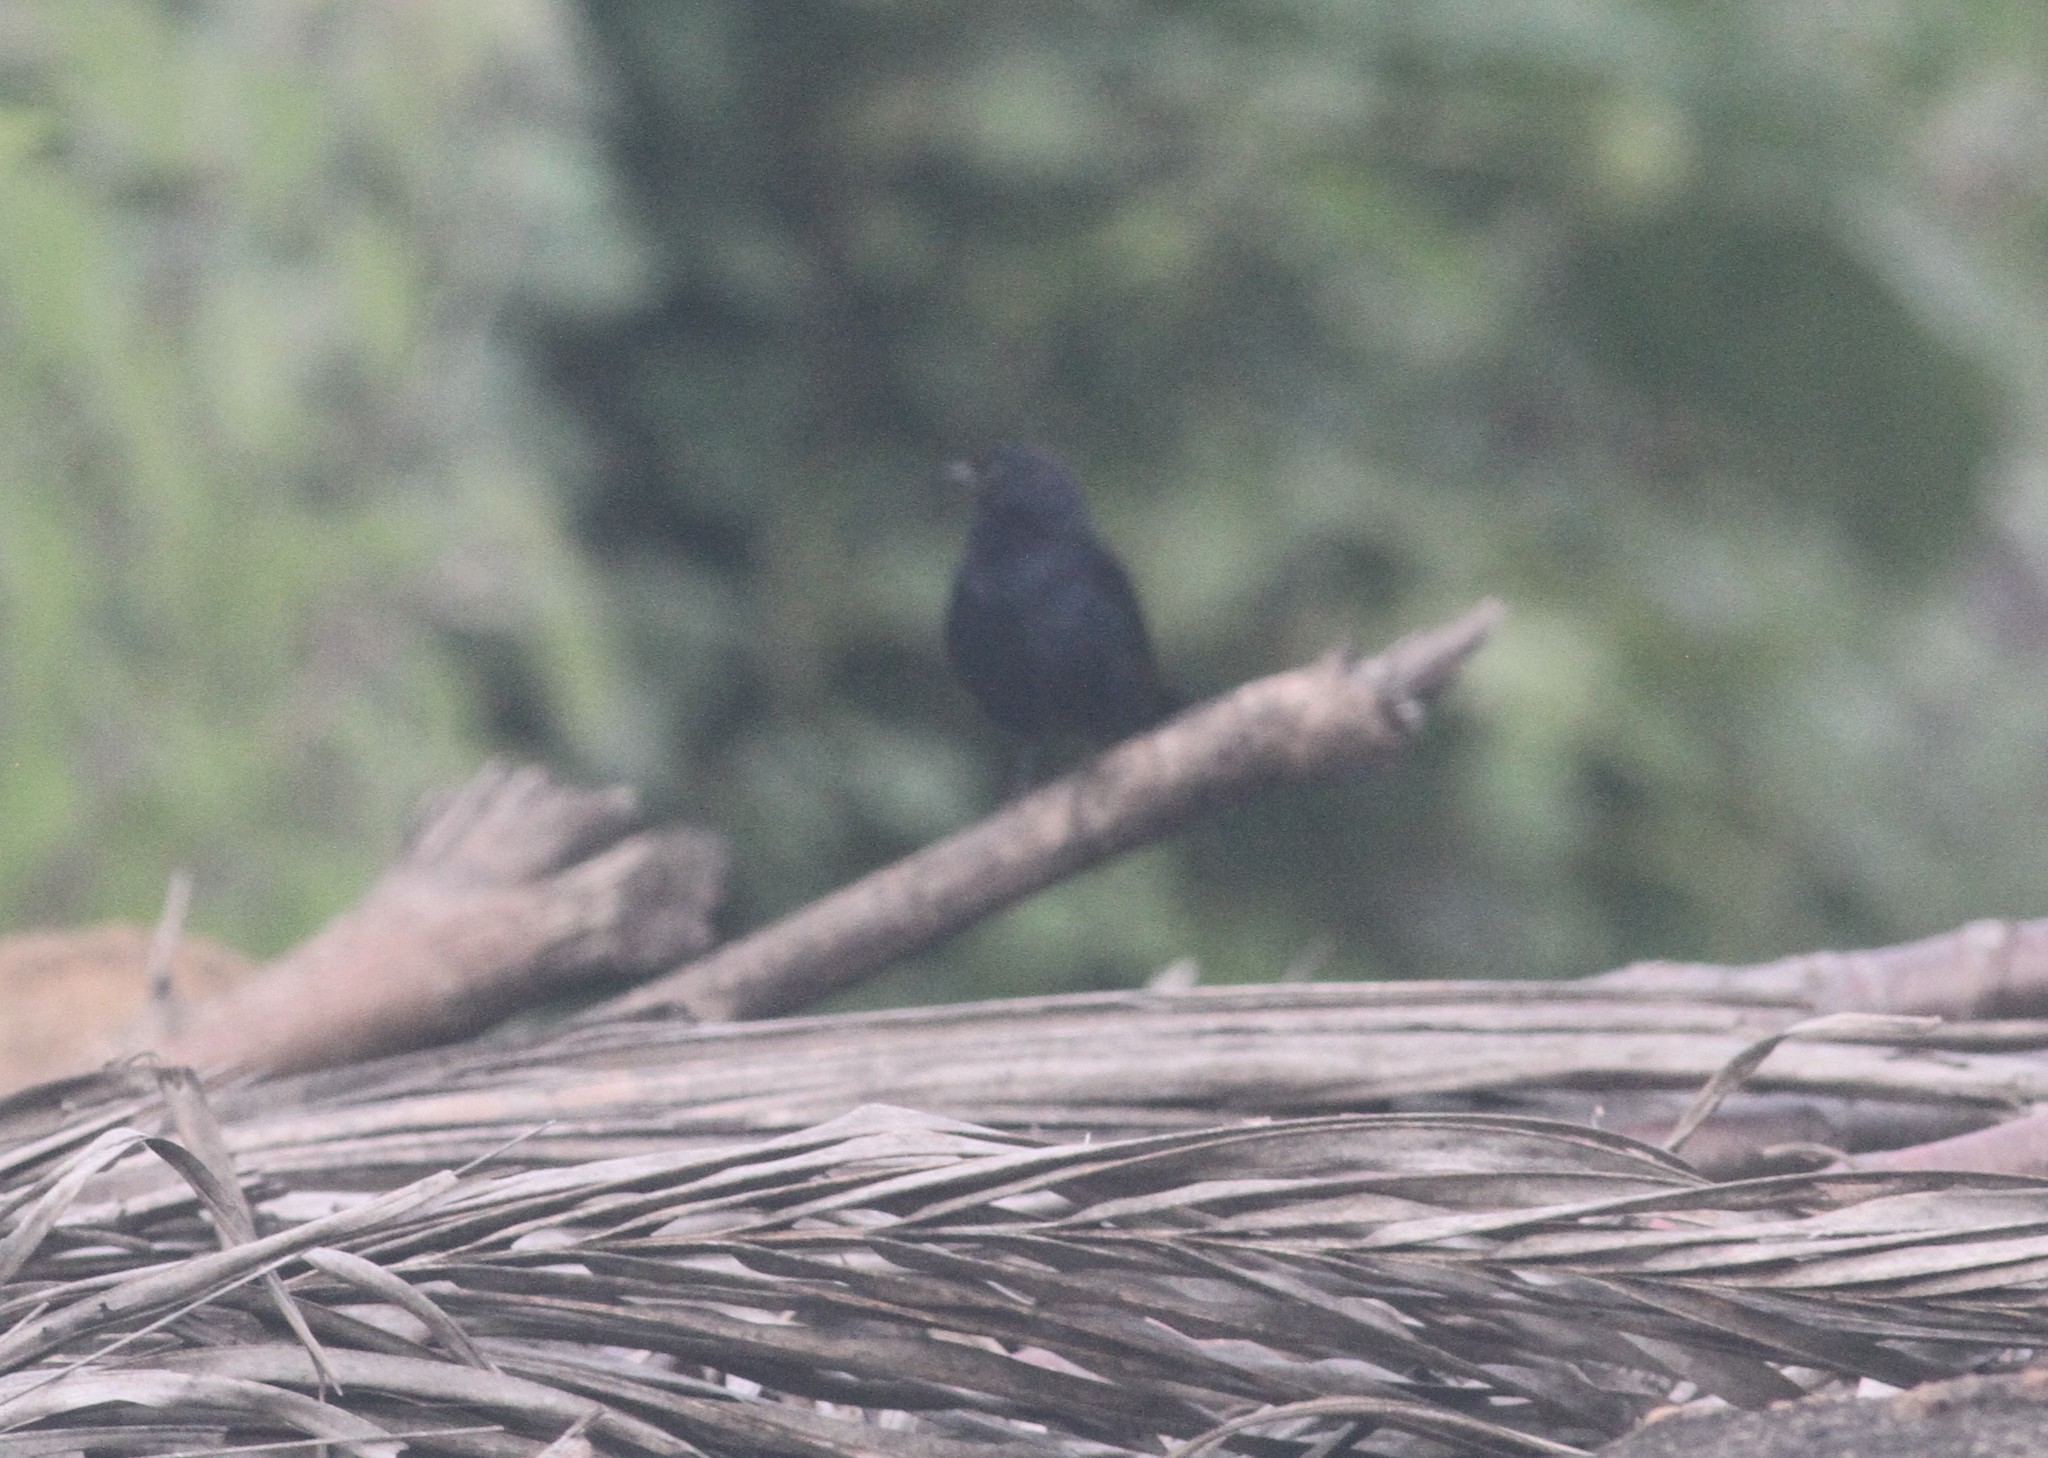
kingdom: Animalia
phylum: Chordata
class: Aves
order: Passeriformes
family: Muscicapidae
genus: Saxicoloides
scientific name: Saxicoloides fulicatus
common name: Indian robin
